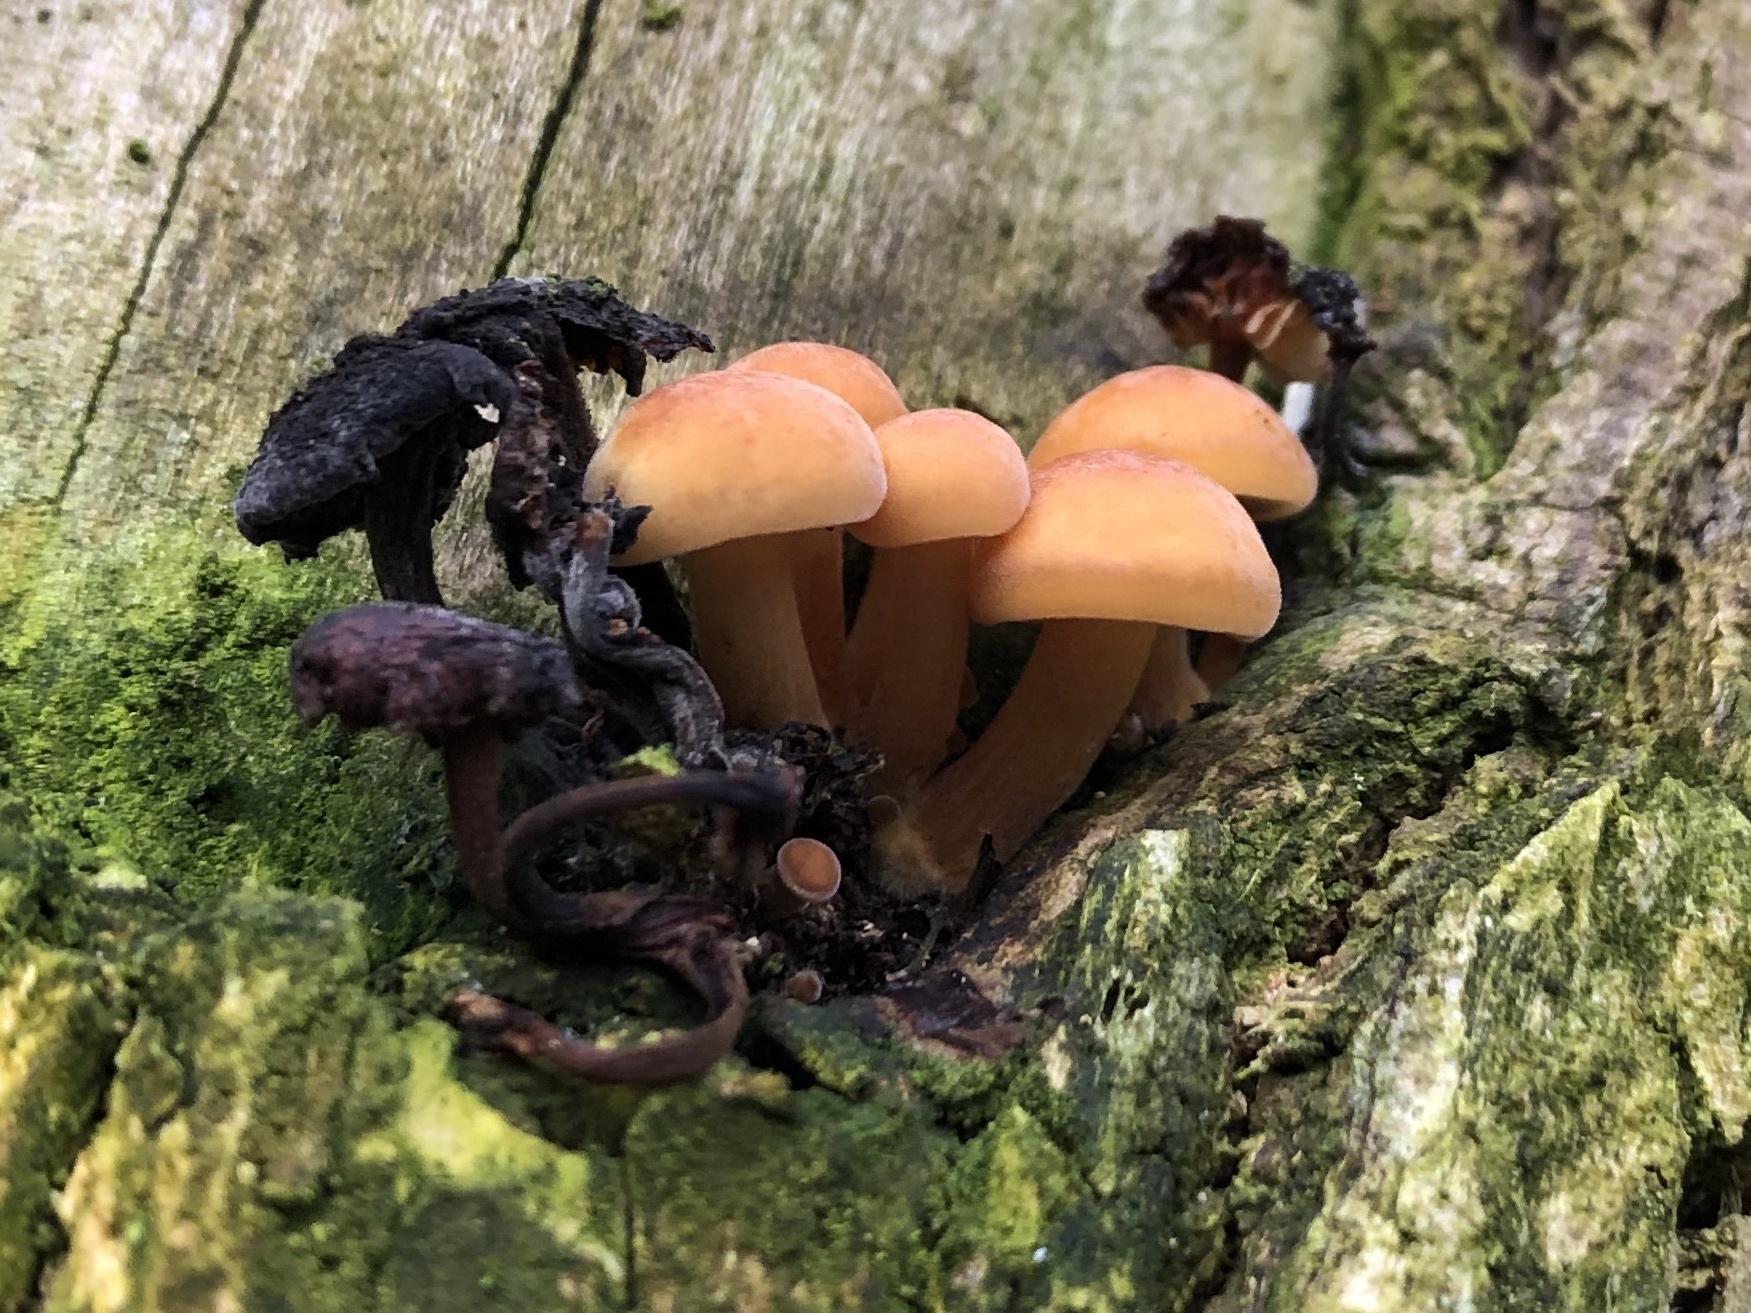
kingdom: Fungi
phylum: Basidiomycota
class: Agaricomycetes
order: Agaricales
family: Physalacriaceae
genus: Flammulina
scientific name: Flammulina
